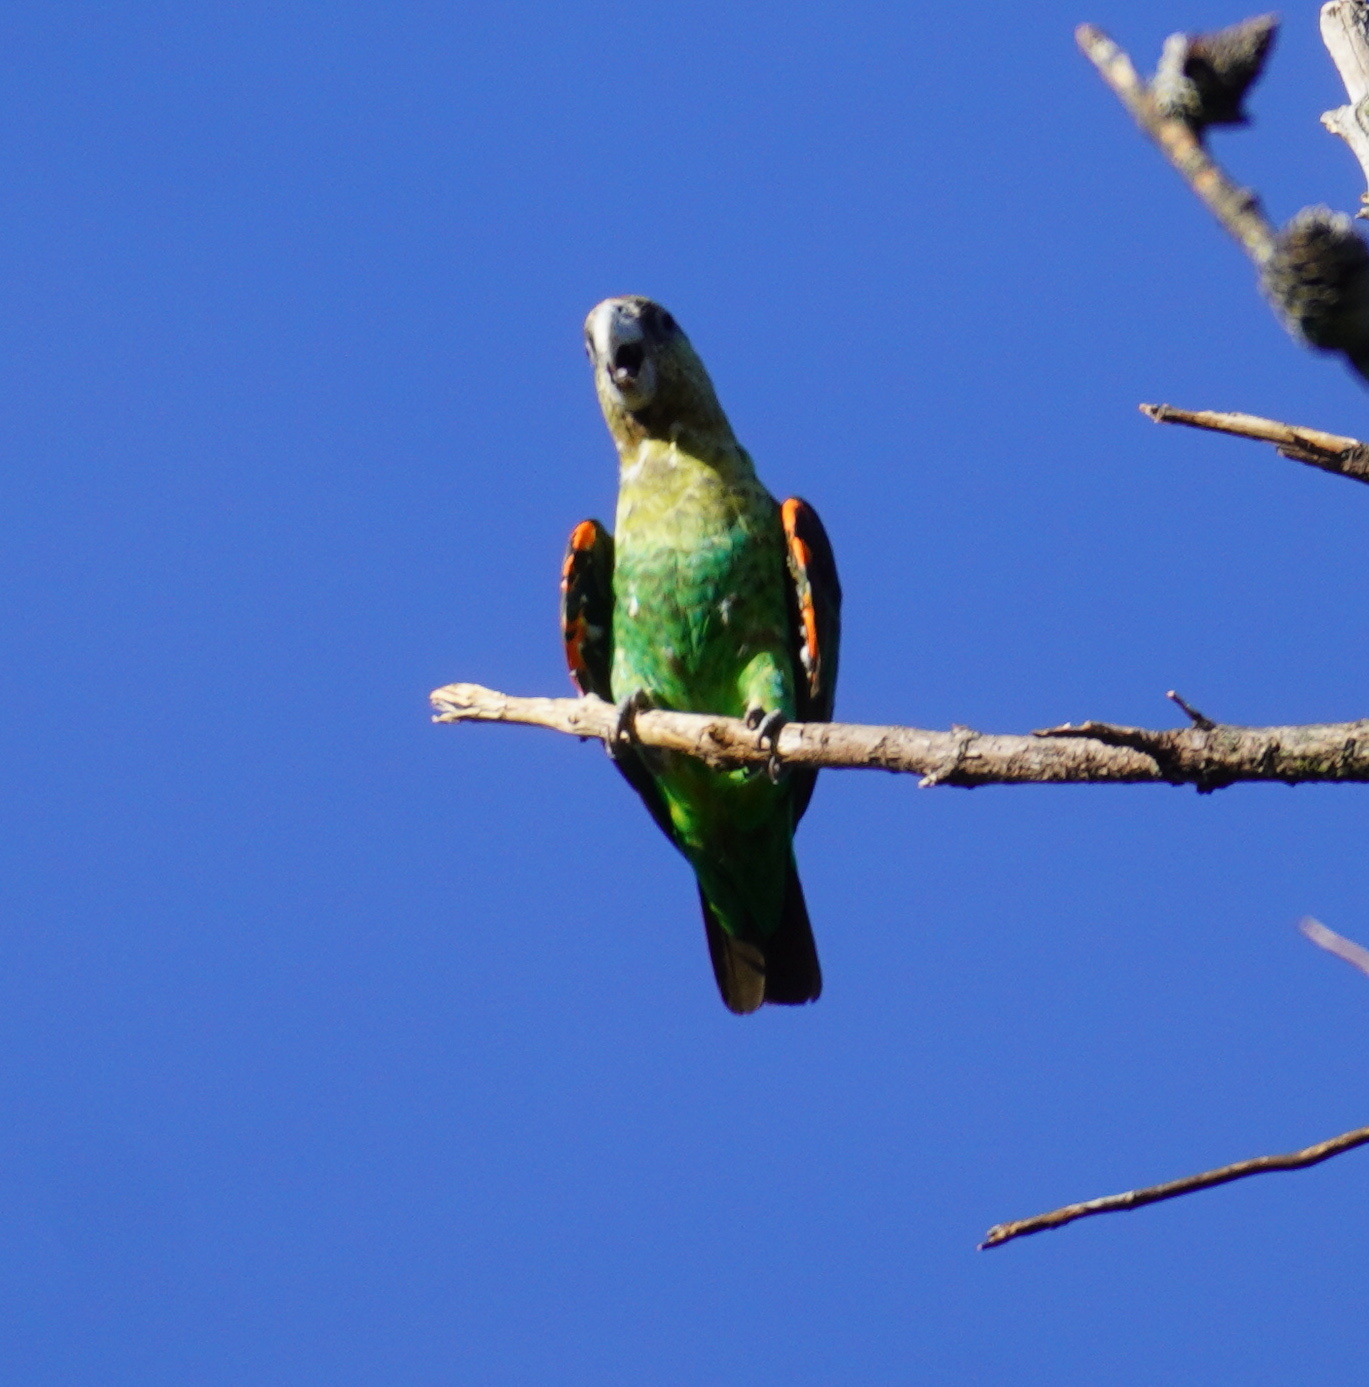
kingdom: Animalia
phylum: Chordata
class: Aves
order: Psittaciformes
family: Psittacidae
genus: Poicephalus
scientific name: Poicephalus robustus
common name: Cape parrot
